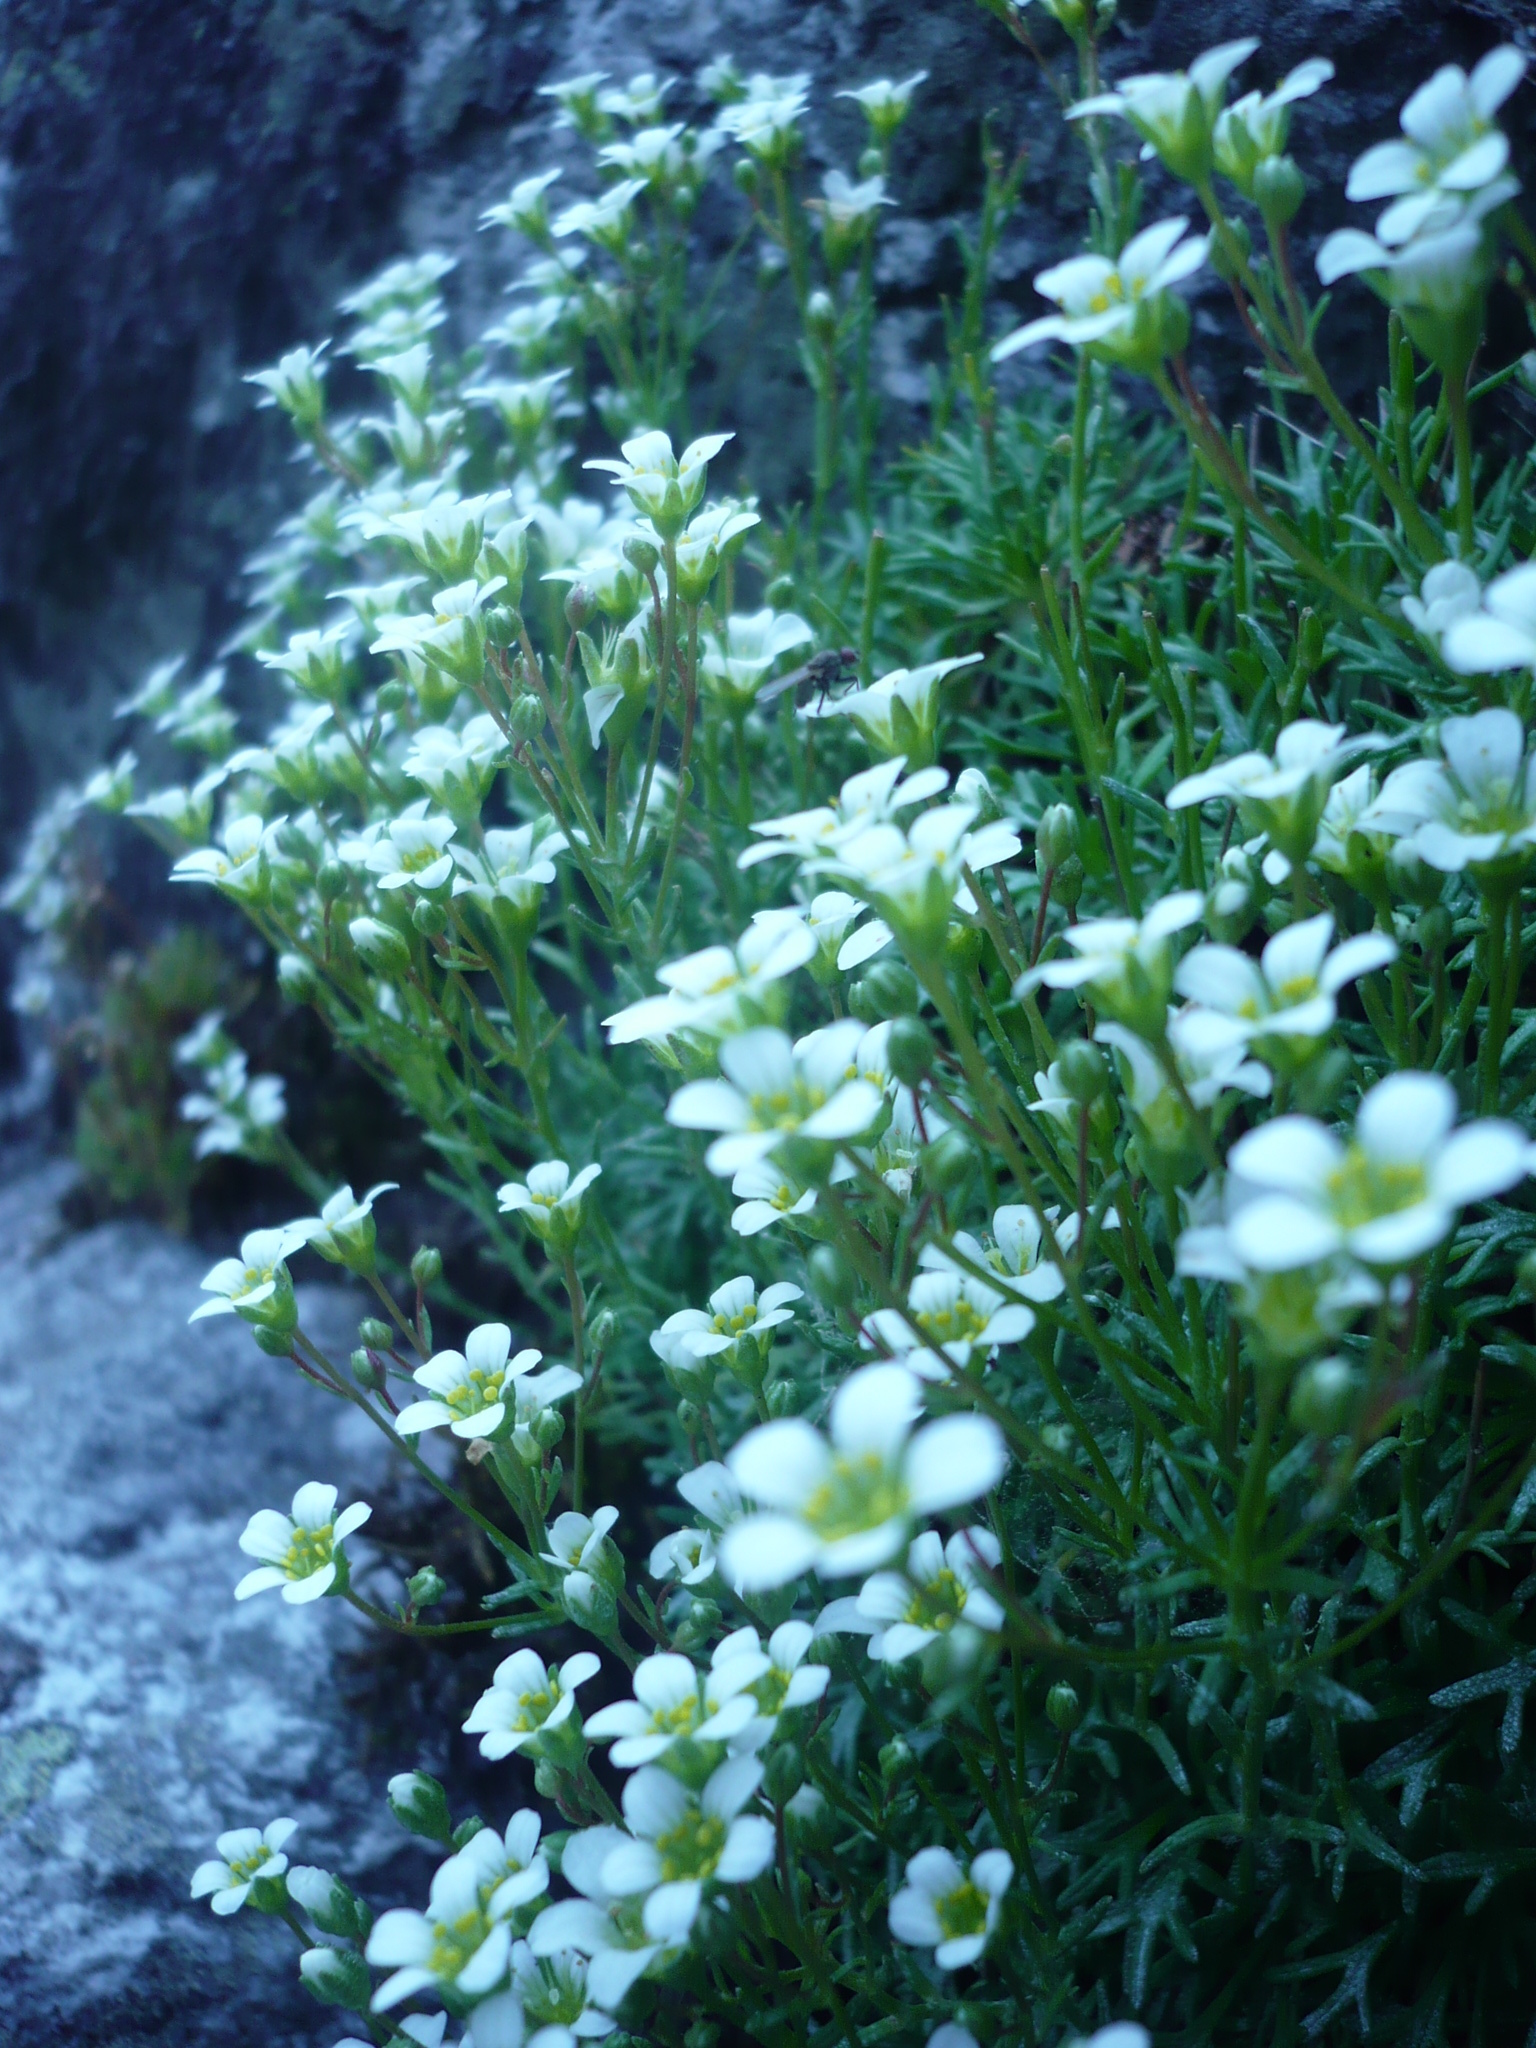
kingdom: Plantae
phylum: Tracheophyta
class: Magnoliopsida
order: Saxifragales
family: Saxifragaceae
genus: Saxifraga
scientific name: Saxifraga pentadactylis
